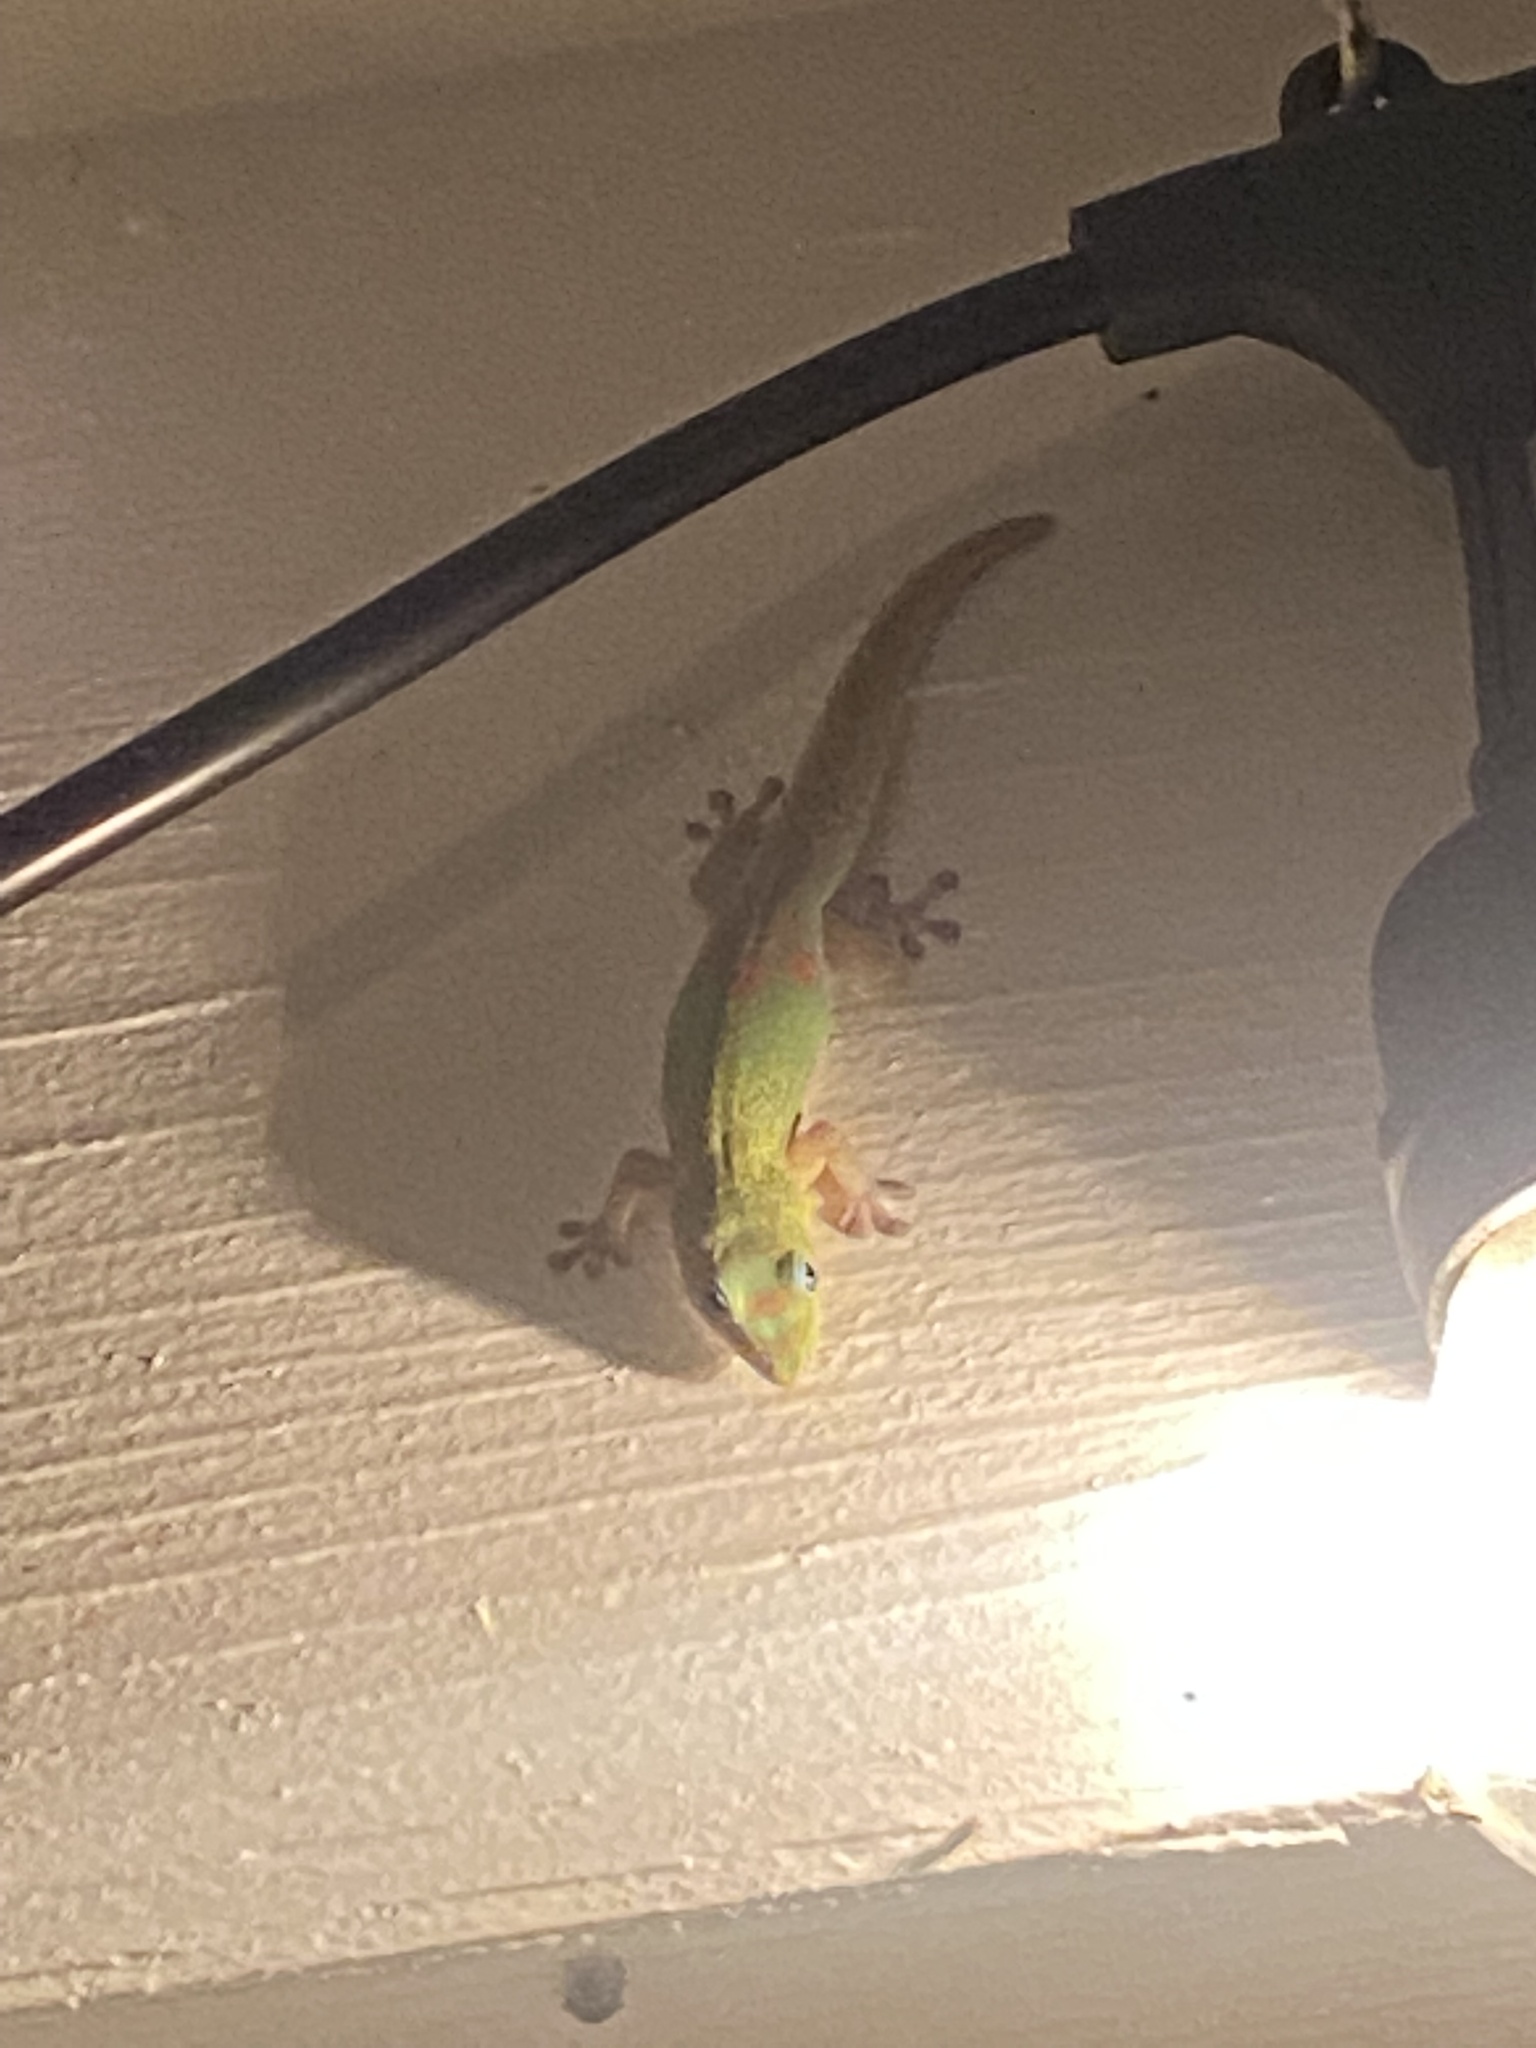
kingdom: Animalia
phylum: Chordata
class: Squamata
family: Gekkonidae
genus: Phelsuma
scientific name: Phelsuma laticauda
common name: Gold dust day gecko
